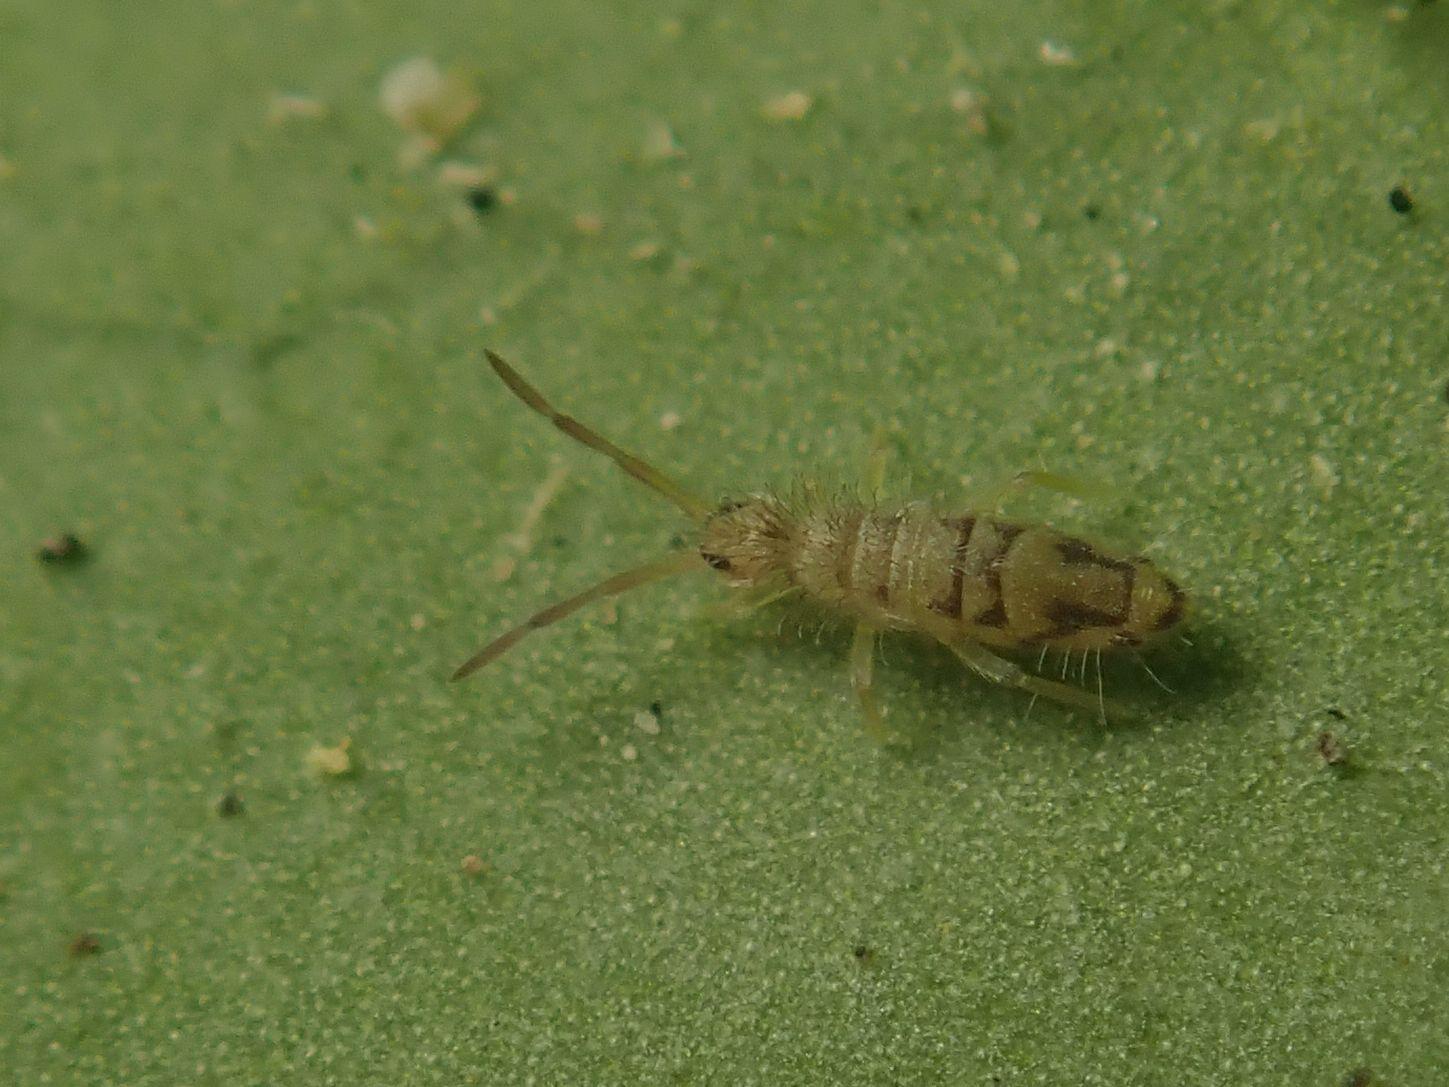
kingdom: Animalia
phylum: Arthropoda
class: Collembola
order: Entomobryomorpha
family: Entomobryidae
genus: Entomobrya
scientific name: Entomobrya nivalis
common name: Cosmopolitan springtail
